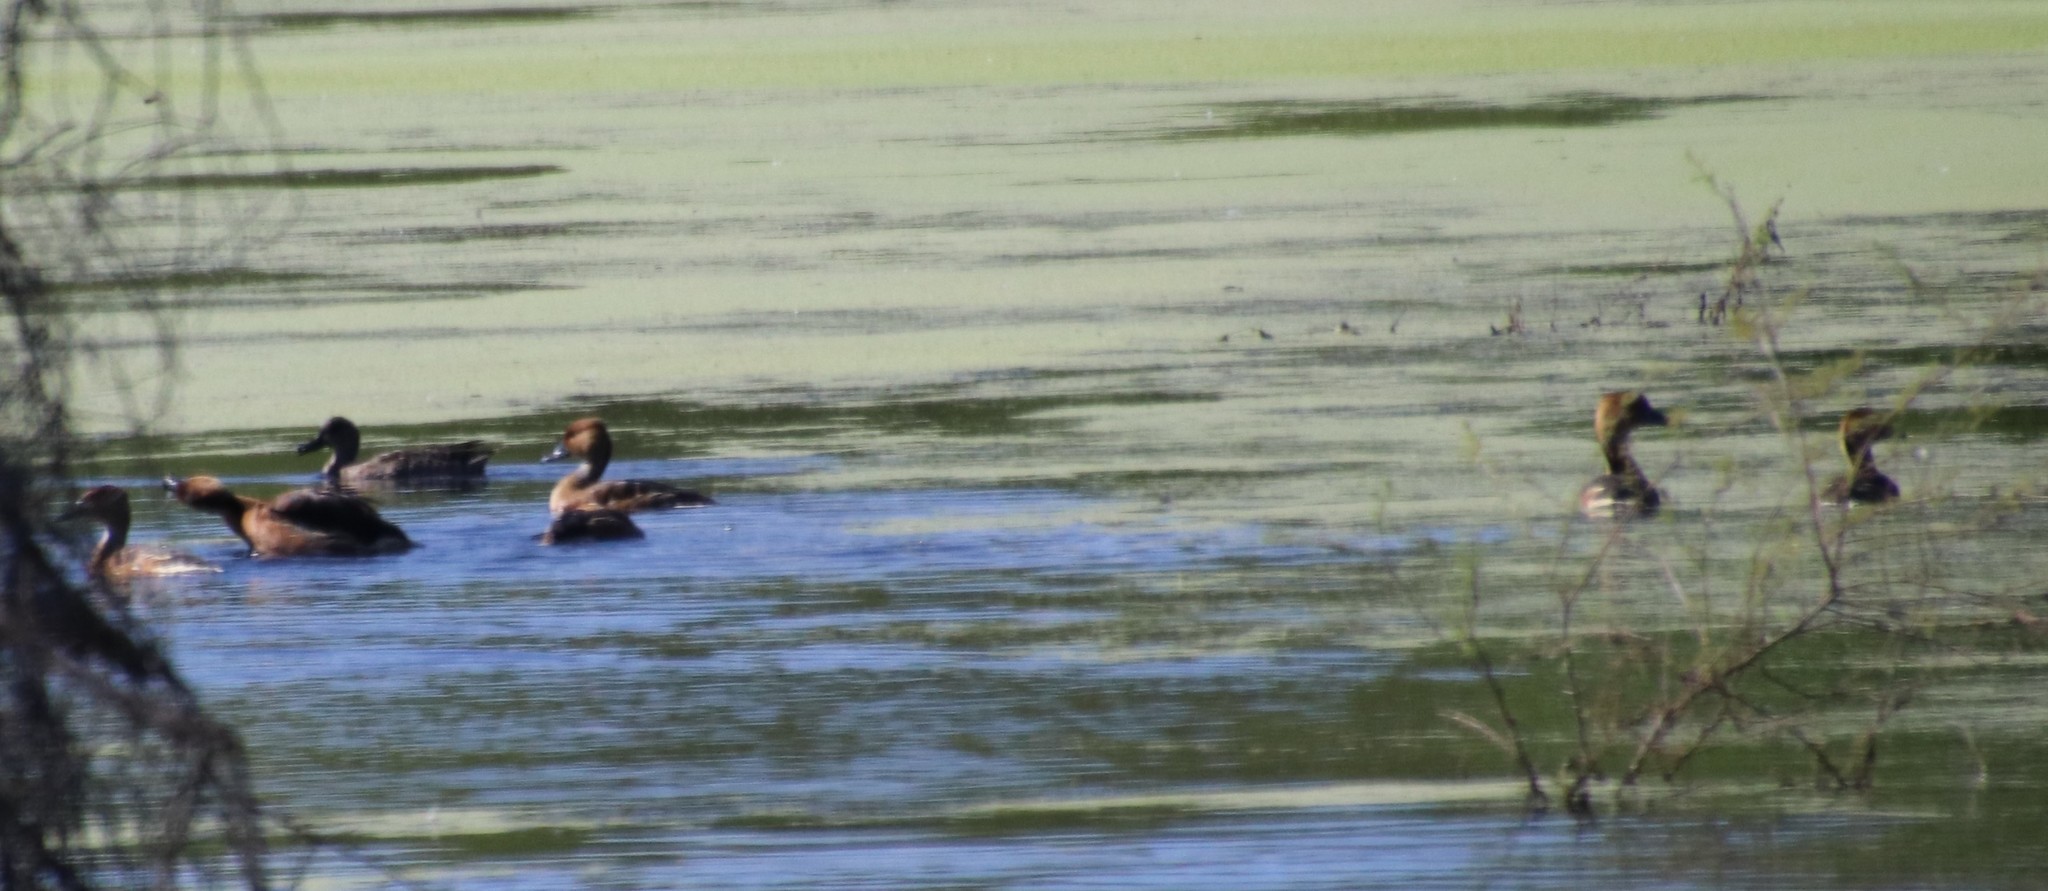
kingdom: Animalia
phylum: Chordata
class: Aves
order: Anseriformes
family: Anatidae
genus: Dendrocygna
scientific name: Dendrocygna bicolor
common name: Fulvous whistling duck
